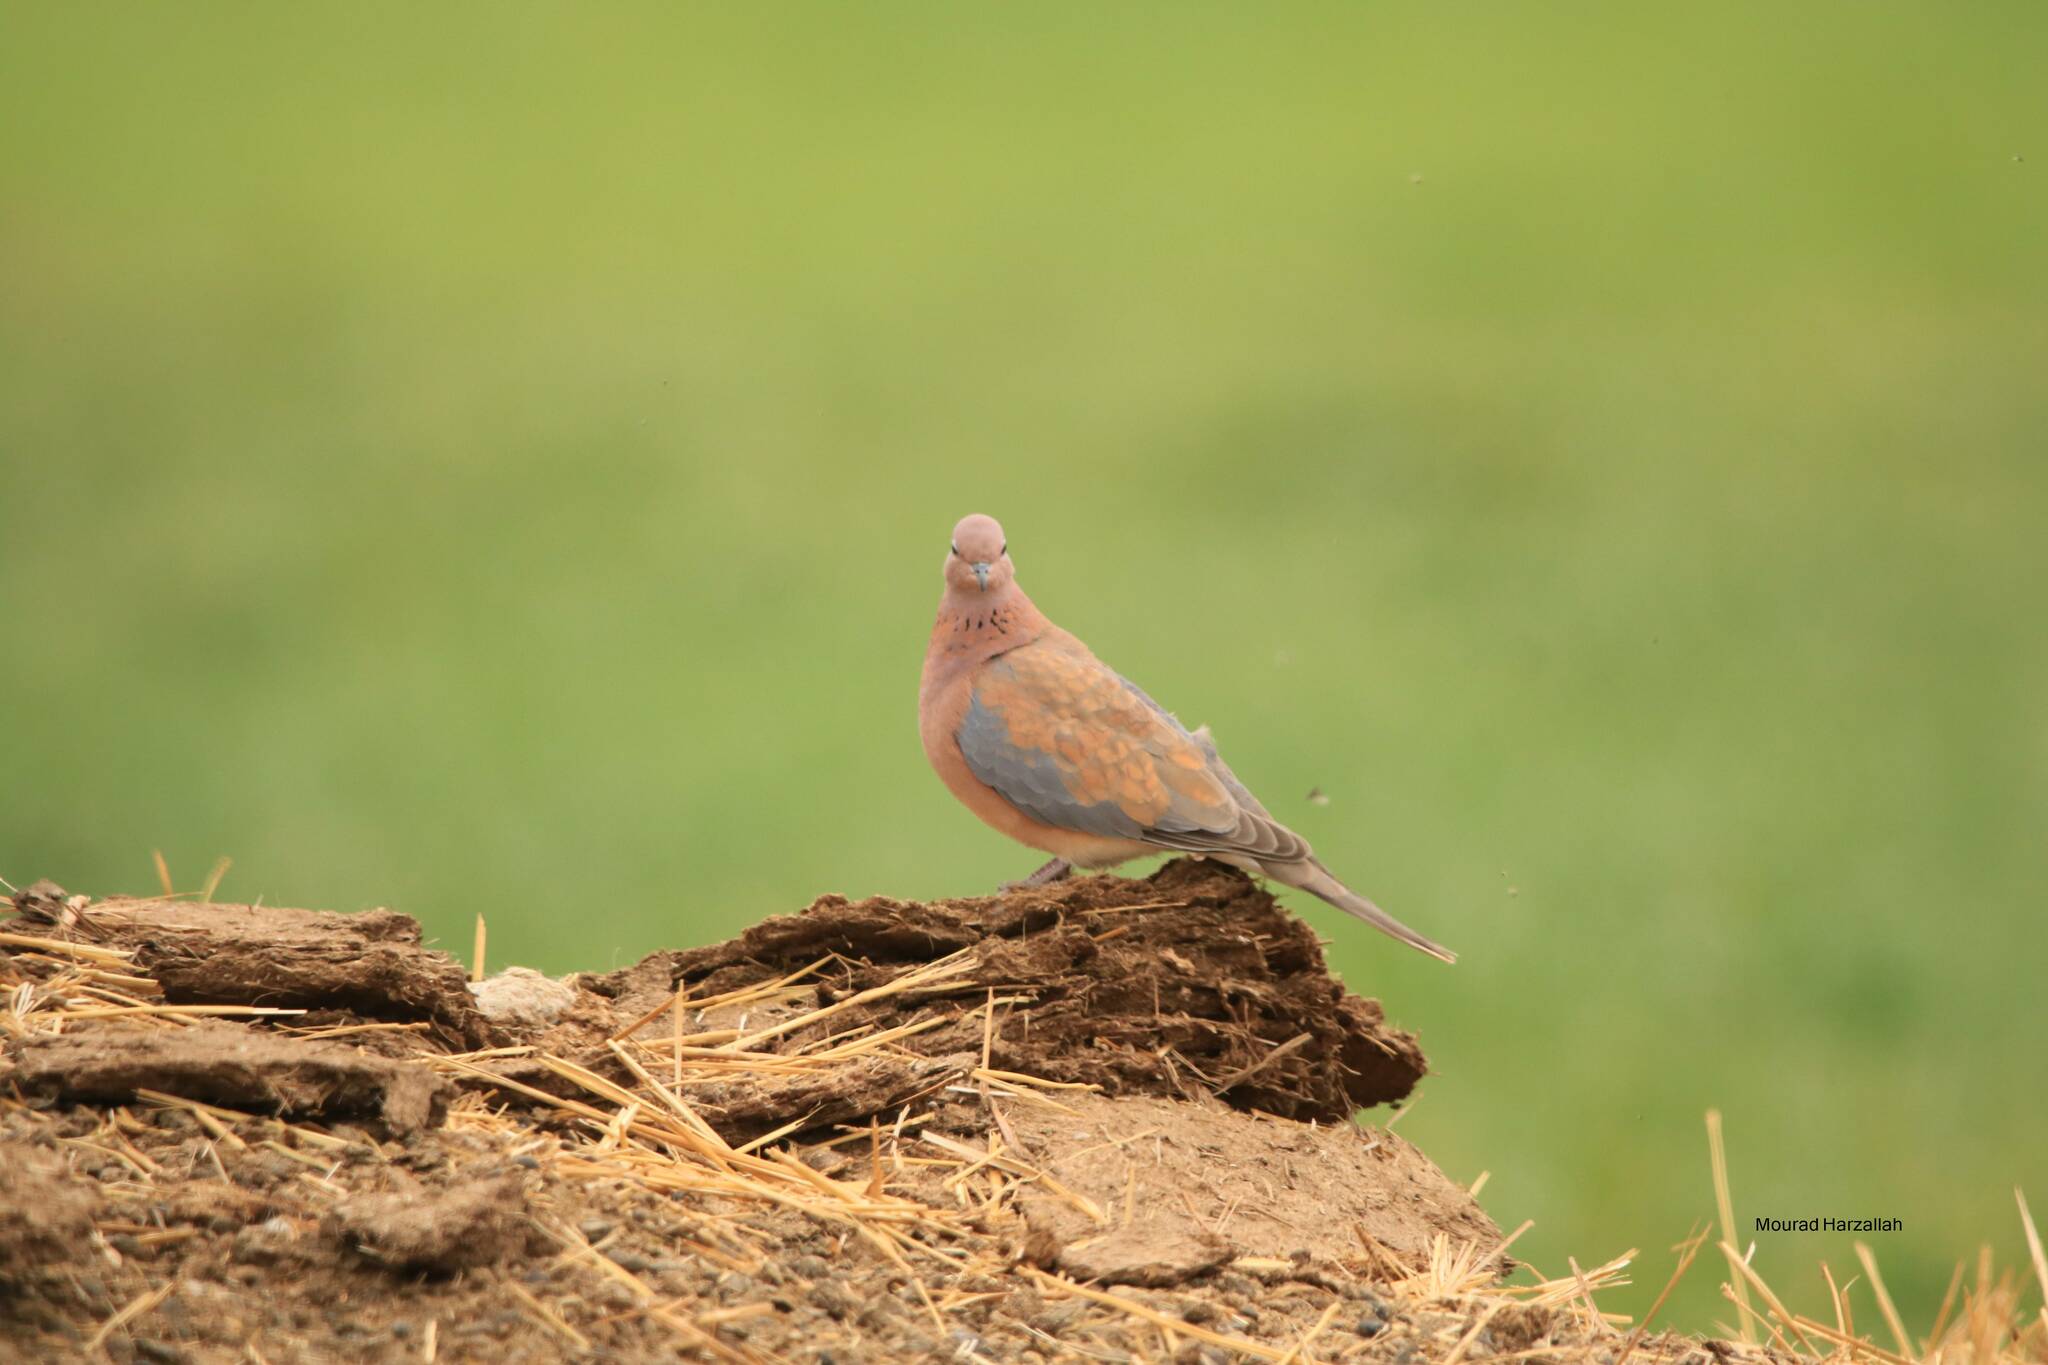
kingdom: Animalia
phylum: Chordata
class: Aves
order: Columbiformes
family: Columbidae
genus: Spilopelia
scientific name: Spilopelia senegalensis
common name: Laughing dove
